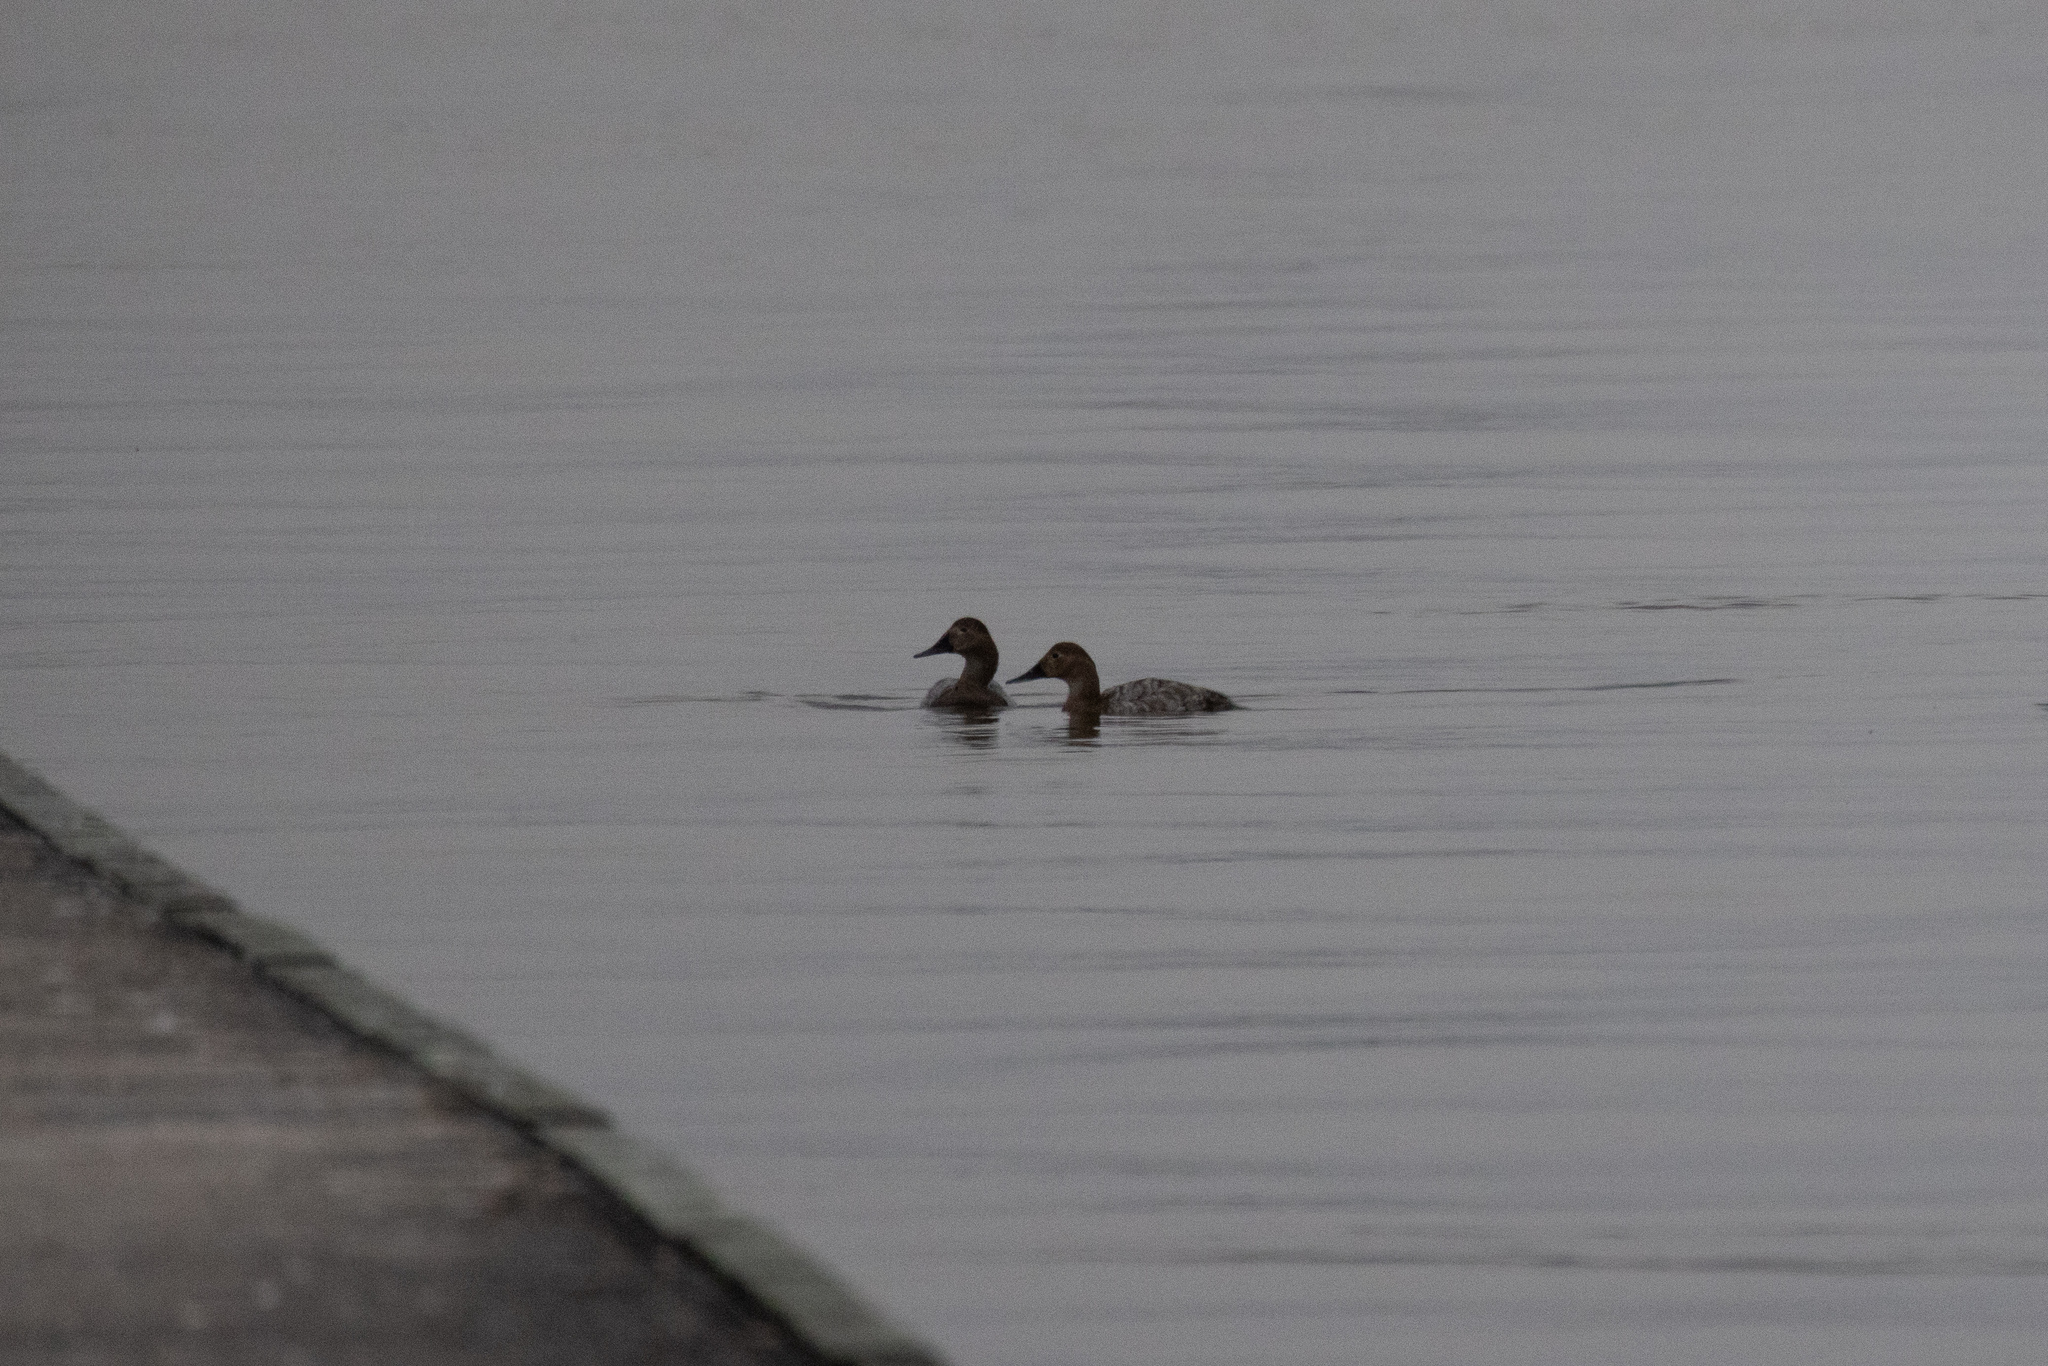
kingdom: Animalia
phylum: Chordata
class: Aves
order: Anseriformes
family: Anatidae
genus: Aythya
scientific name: Aythya valisineria
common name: Canvasback
